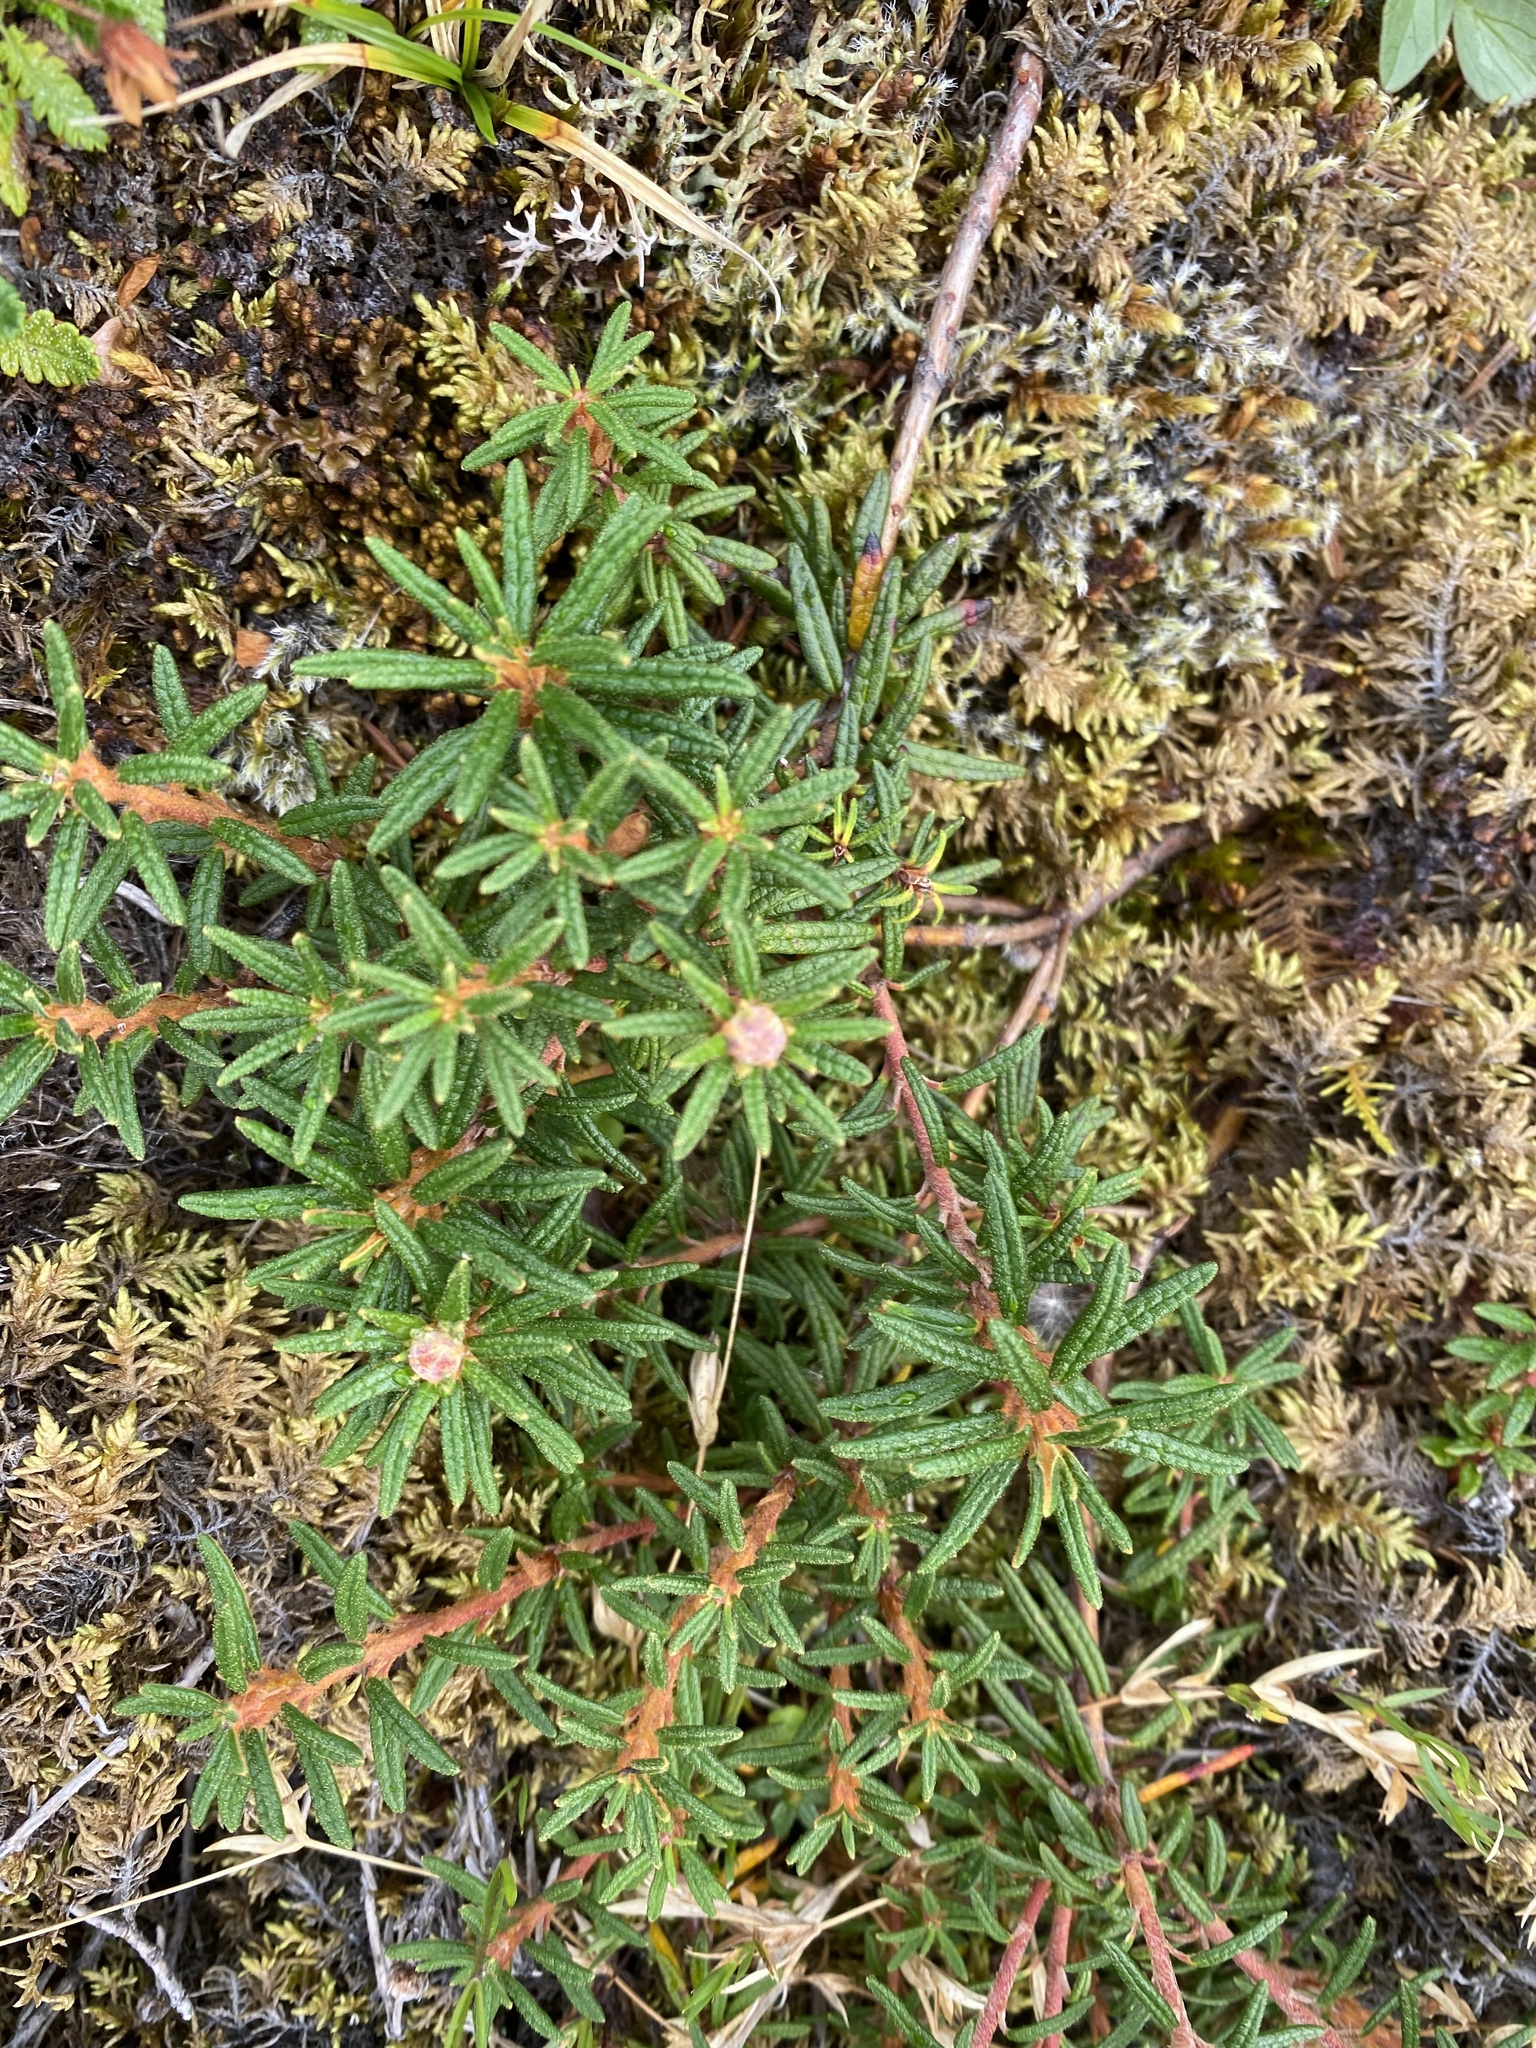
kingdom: Plantae
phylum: Tracheophyta
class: Magnoliopsida
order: Ericales
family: Ericaceae
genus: Rhododendron
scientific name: Rhododendron tomentosum
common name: Marsh labrador tea
